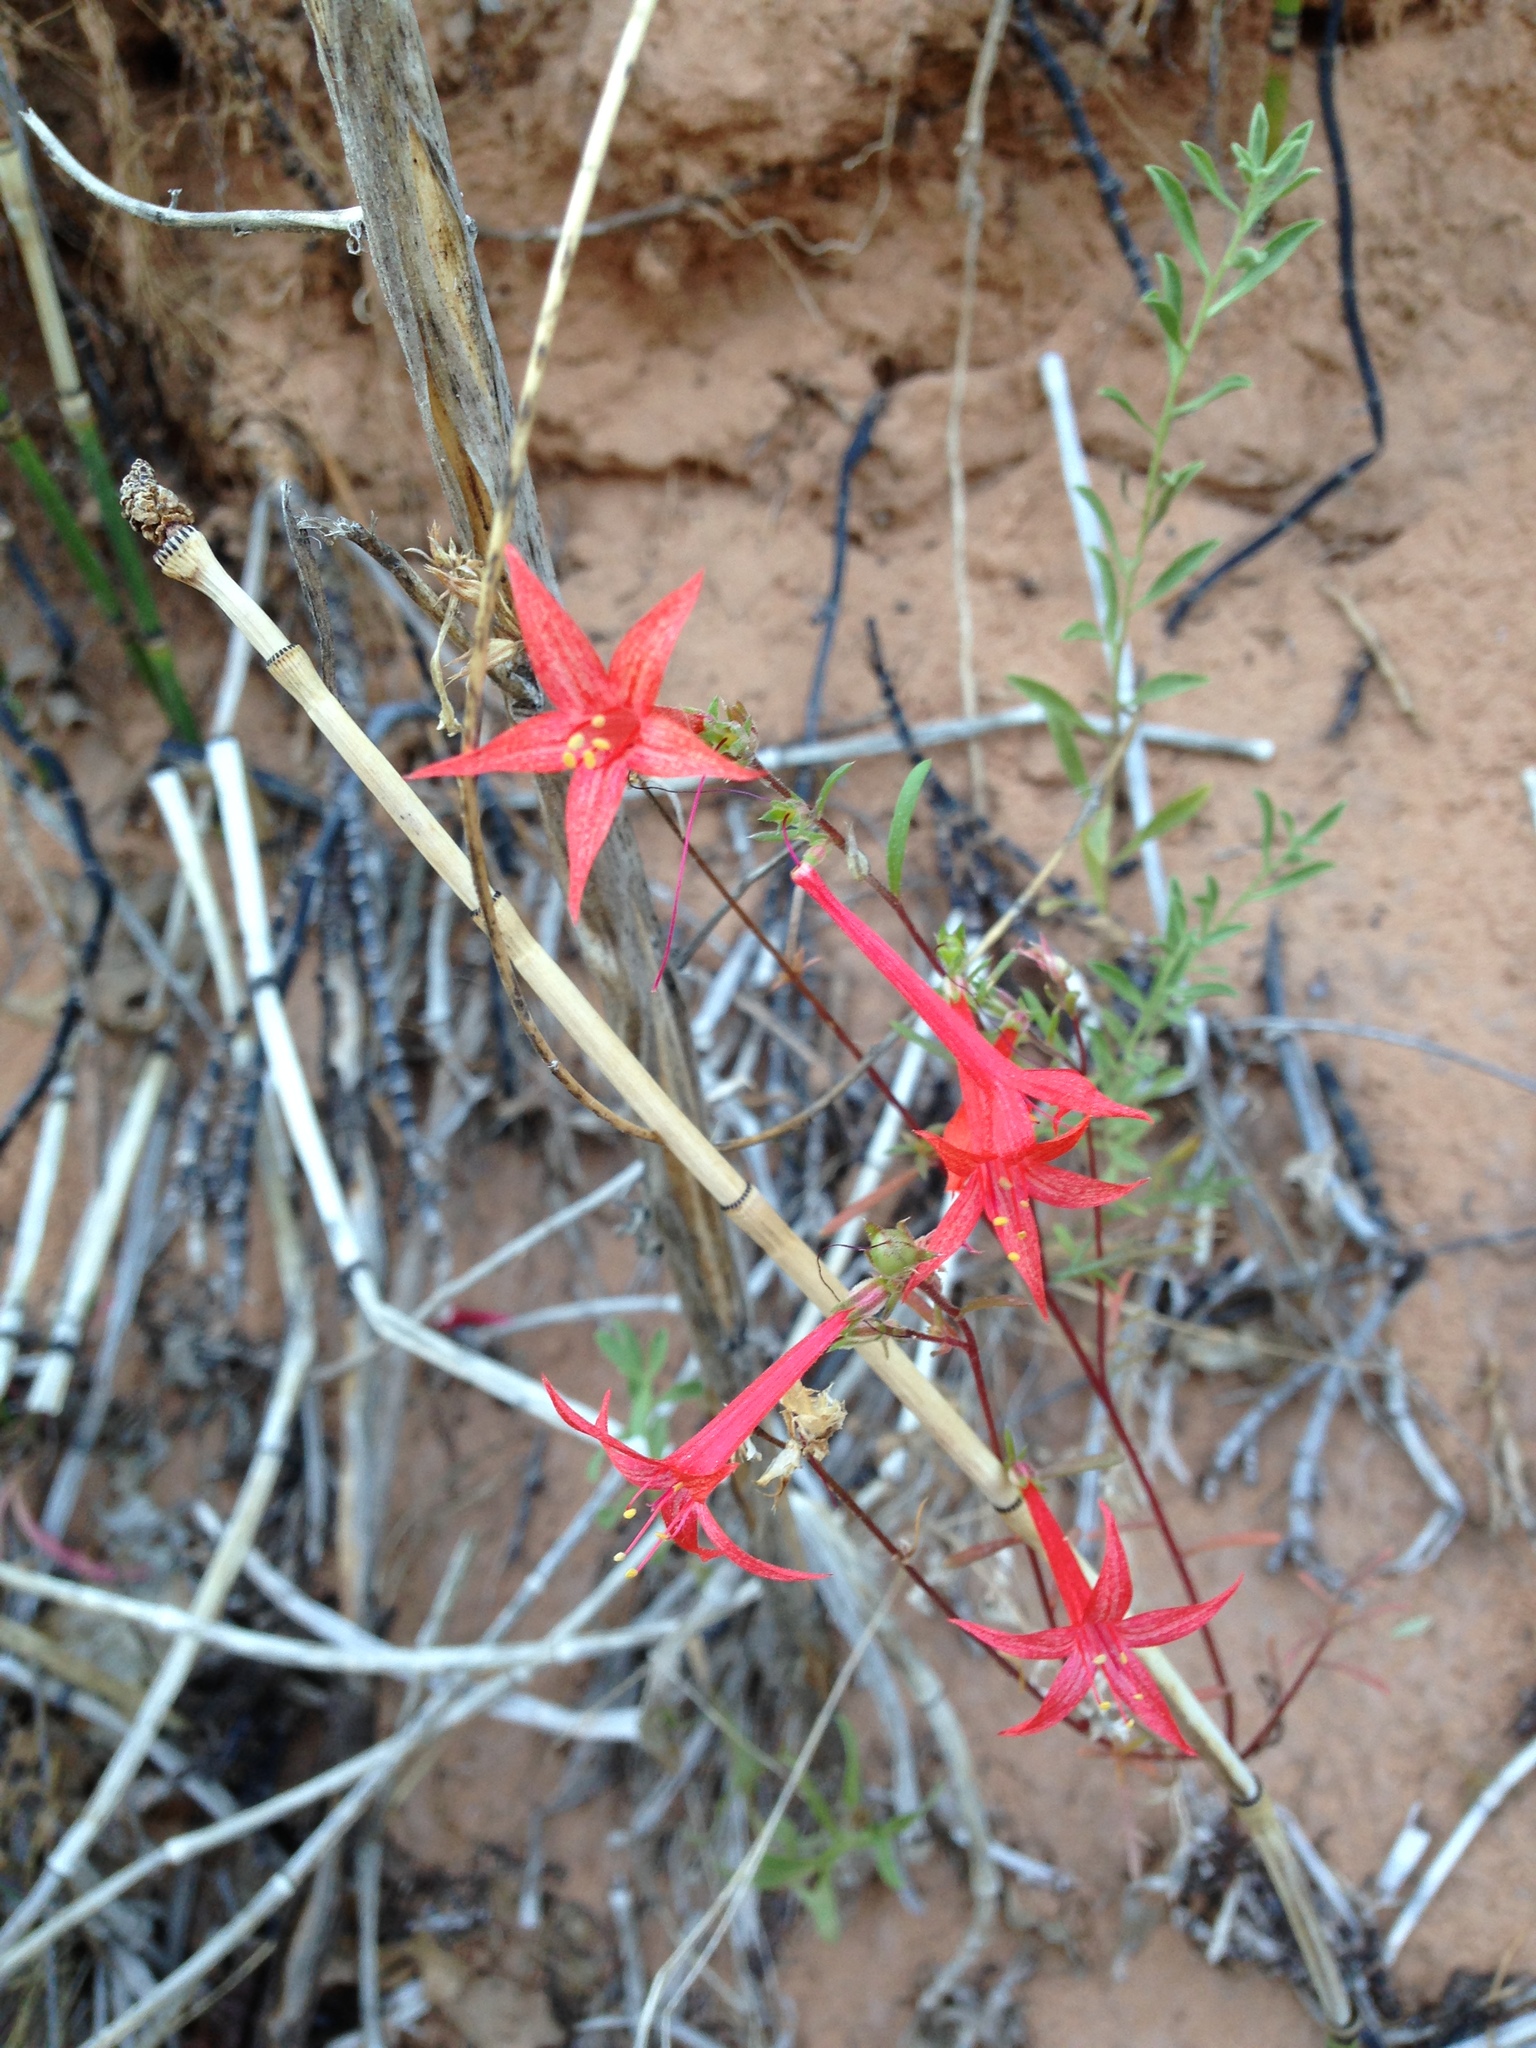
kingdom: Plantae
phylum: Tracheophyta
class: Magnoliopsida
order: Ericales
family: Polemoniaceae
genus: Ipomopsis
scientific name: Ipomopsis aggregata
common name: Scarlet gilia
